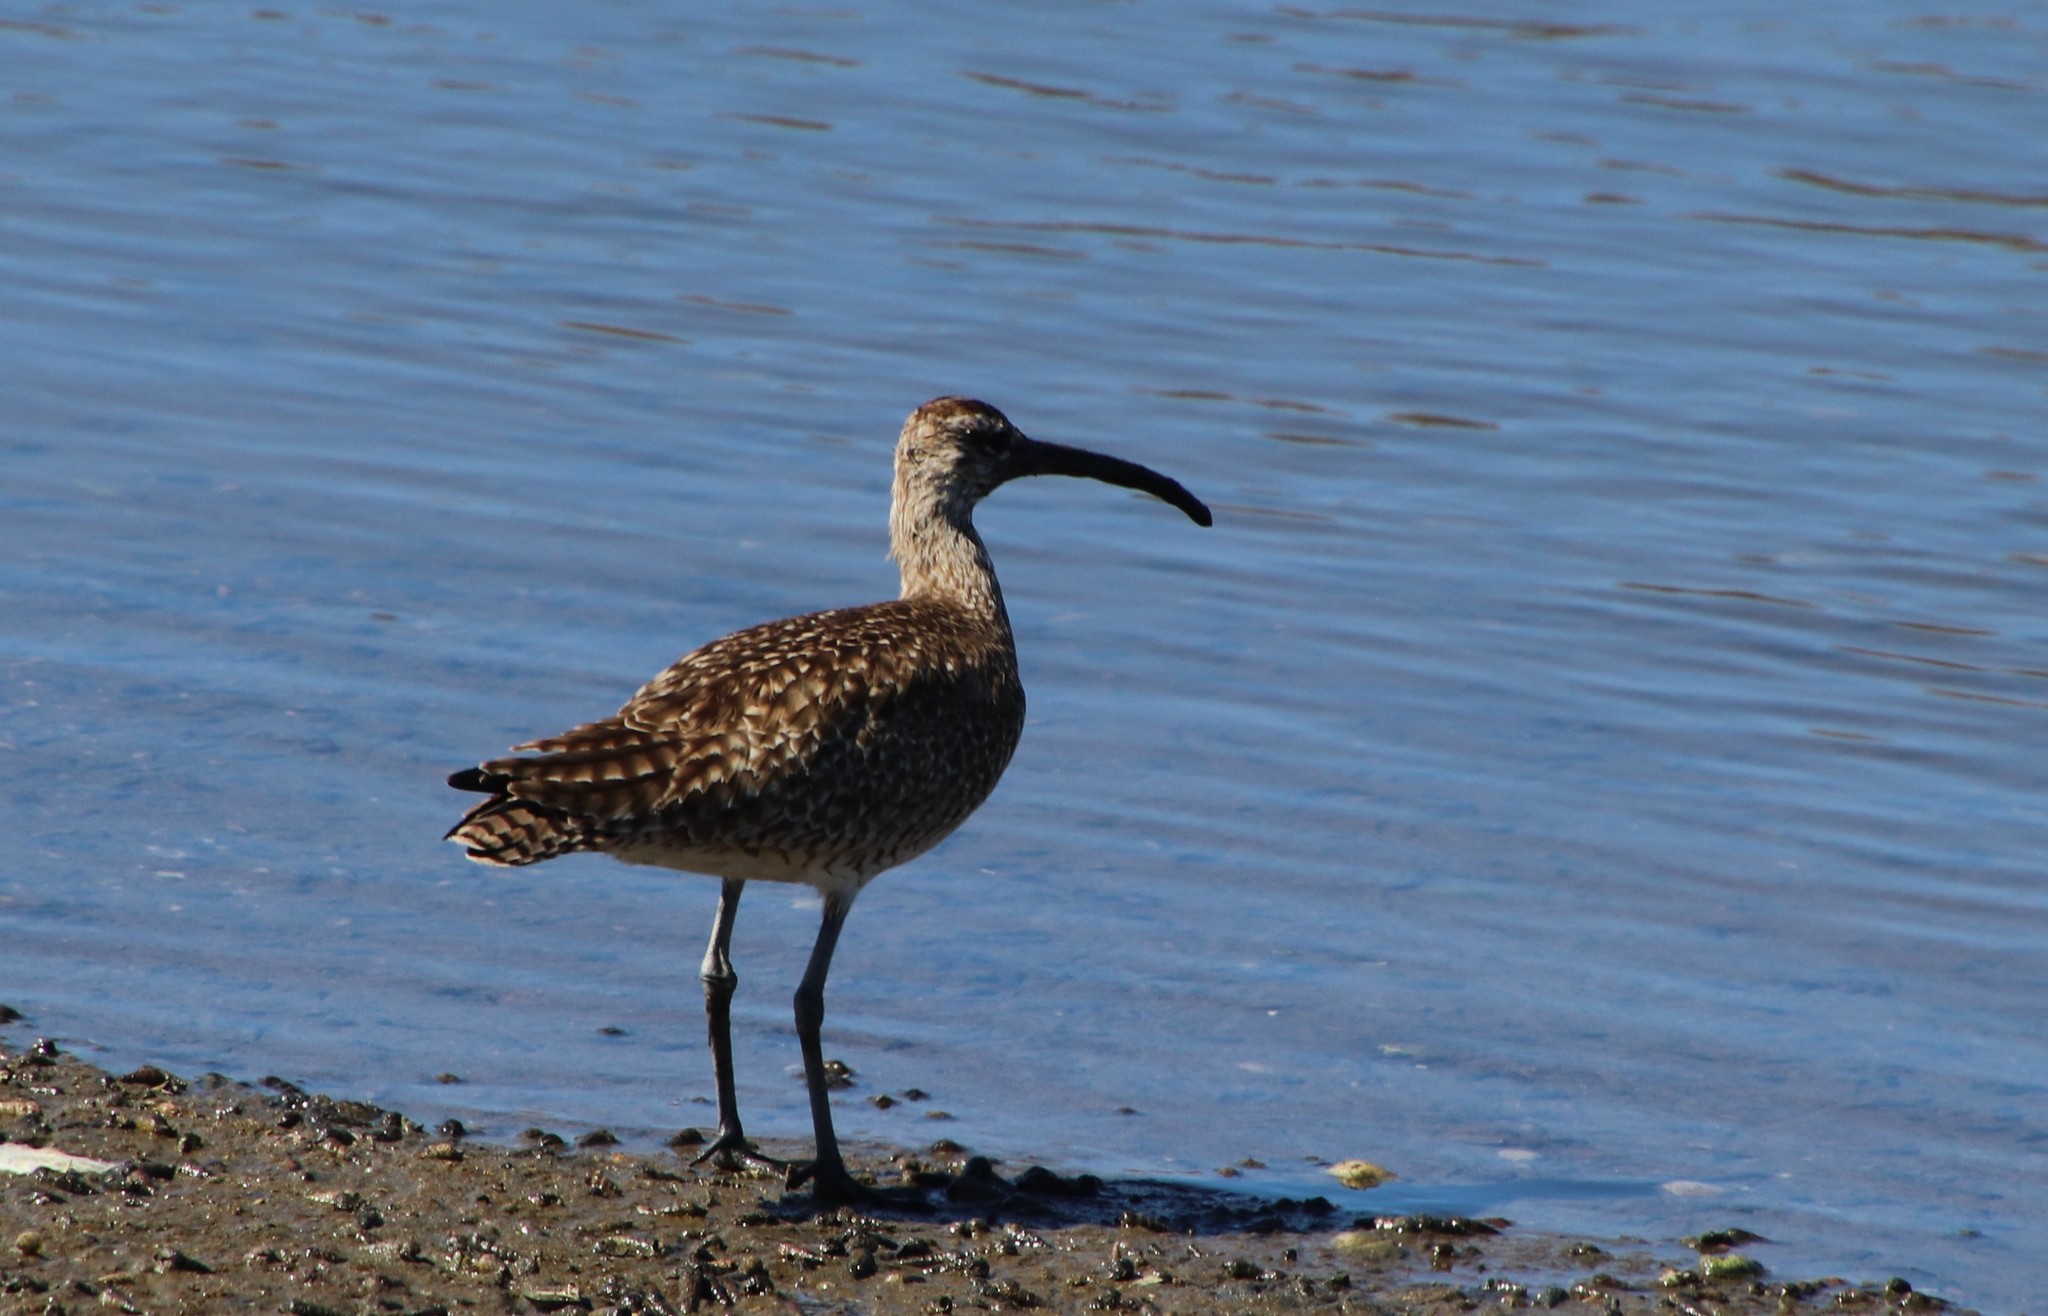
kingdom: Animalia
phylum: Chordata
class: Aves
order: Charadriiformes
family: Scolopacidae
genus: Numenius
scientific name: Numenius phaeopus
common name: Whimbrel
